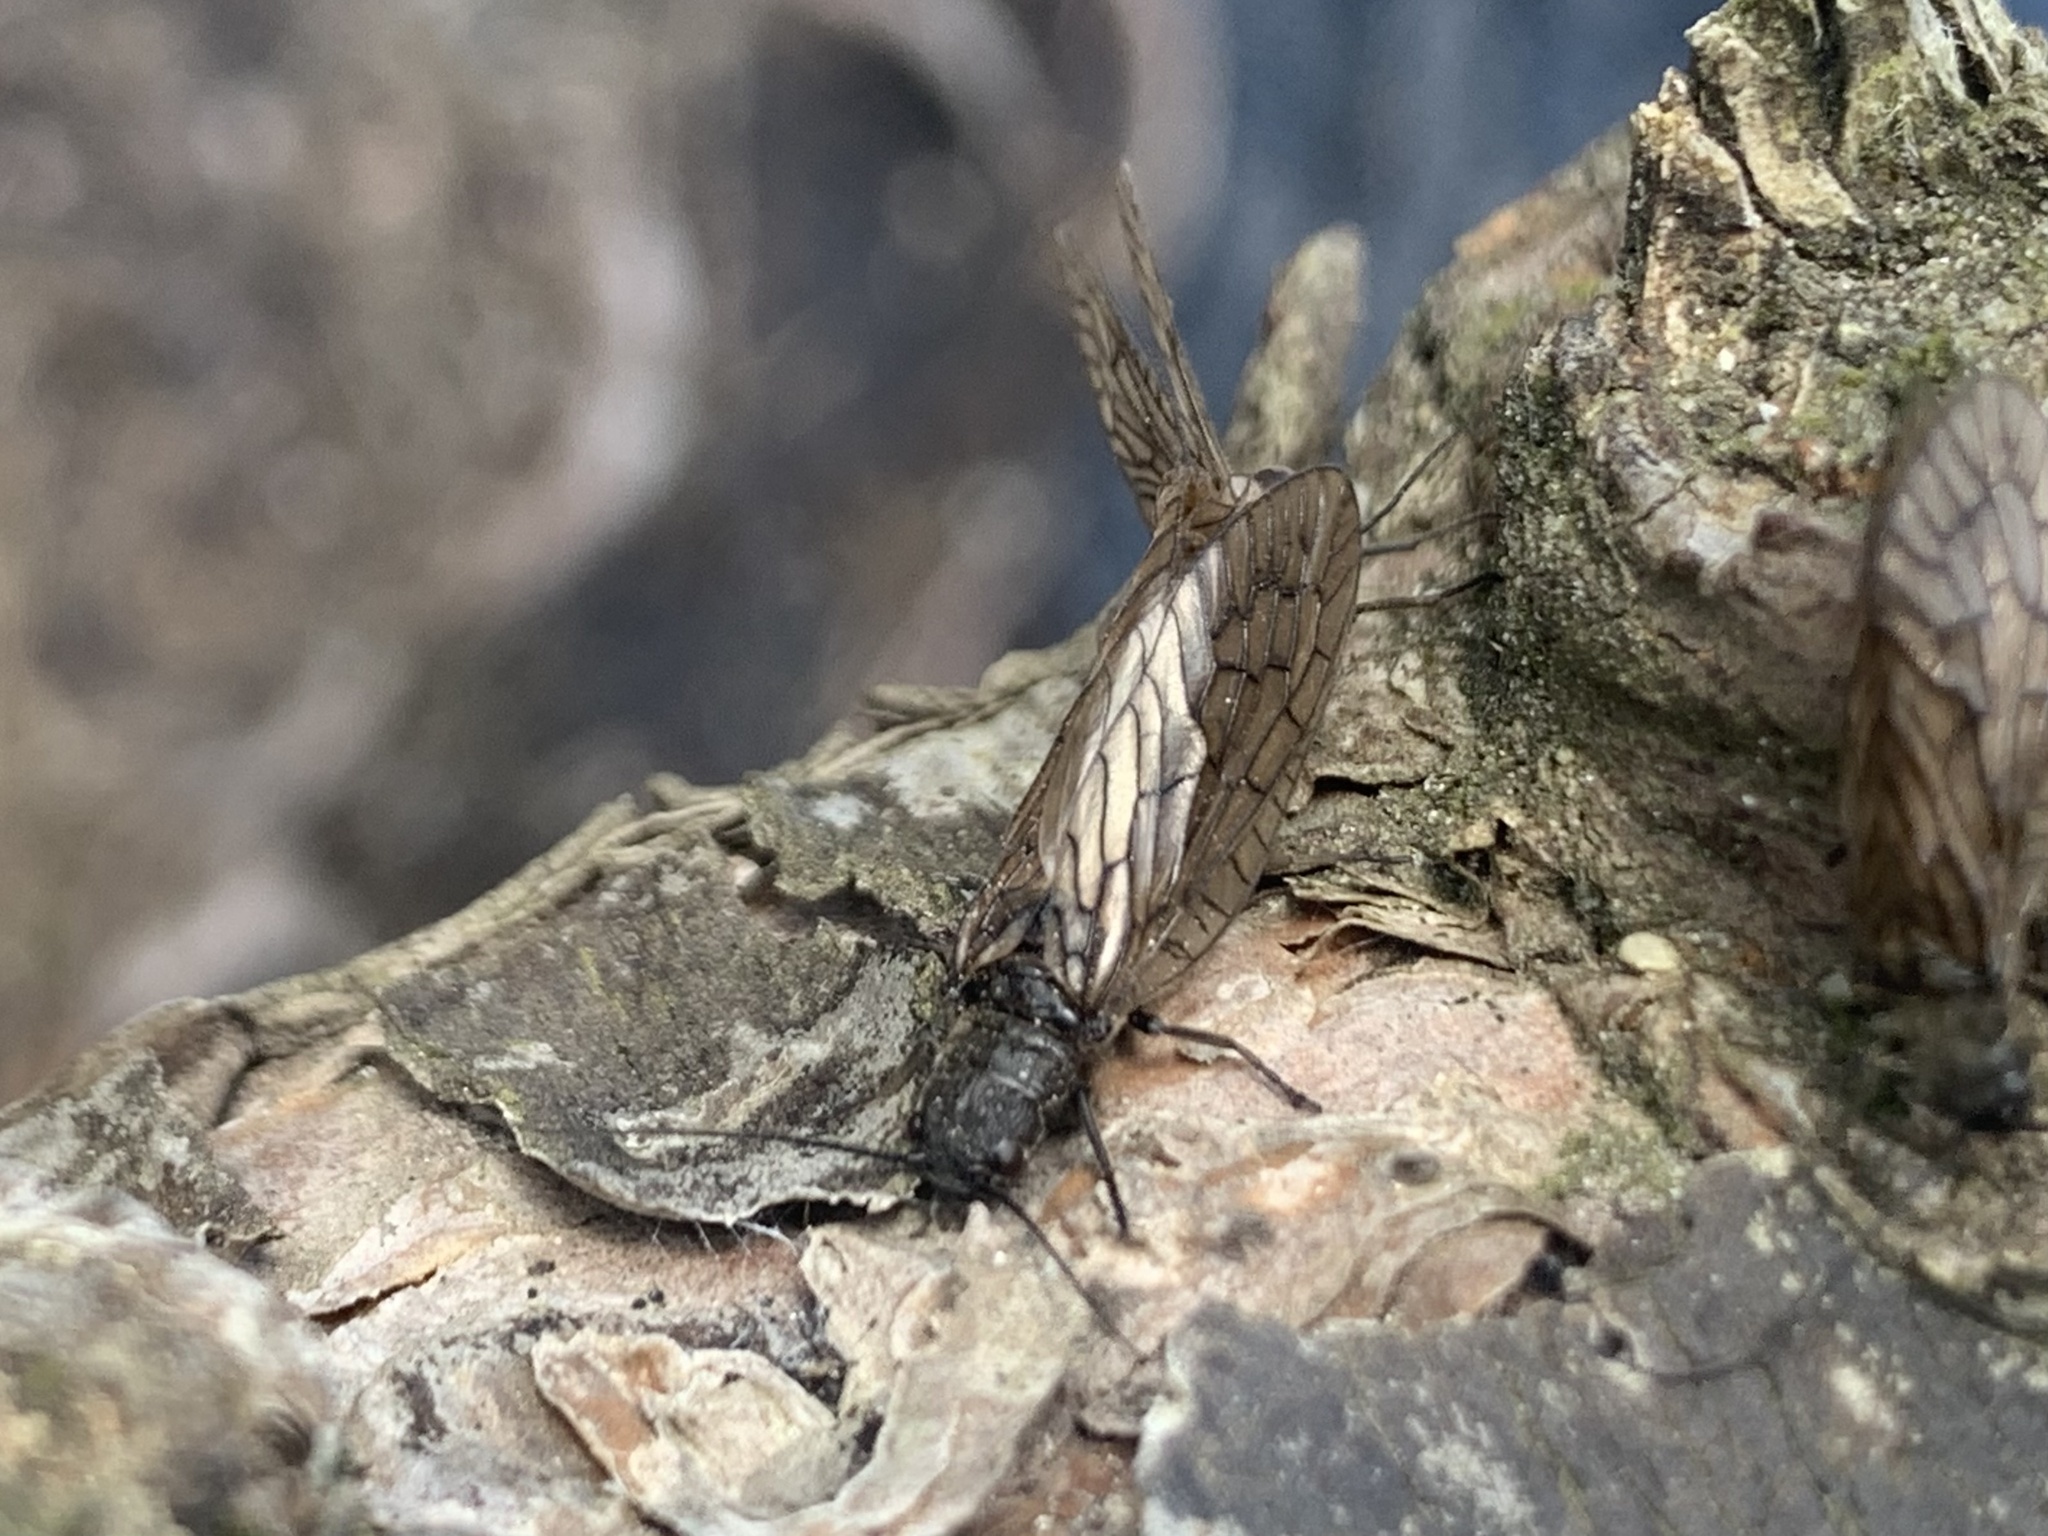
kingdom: Animalia
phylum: Arthropoda
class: Insecta
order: Megaloptera
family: Sialidae
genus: Sialis
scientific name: Sialis
